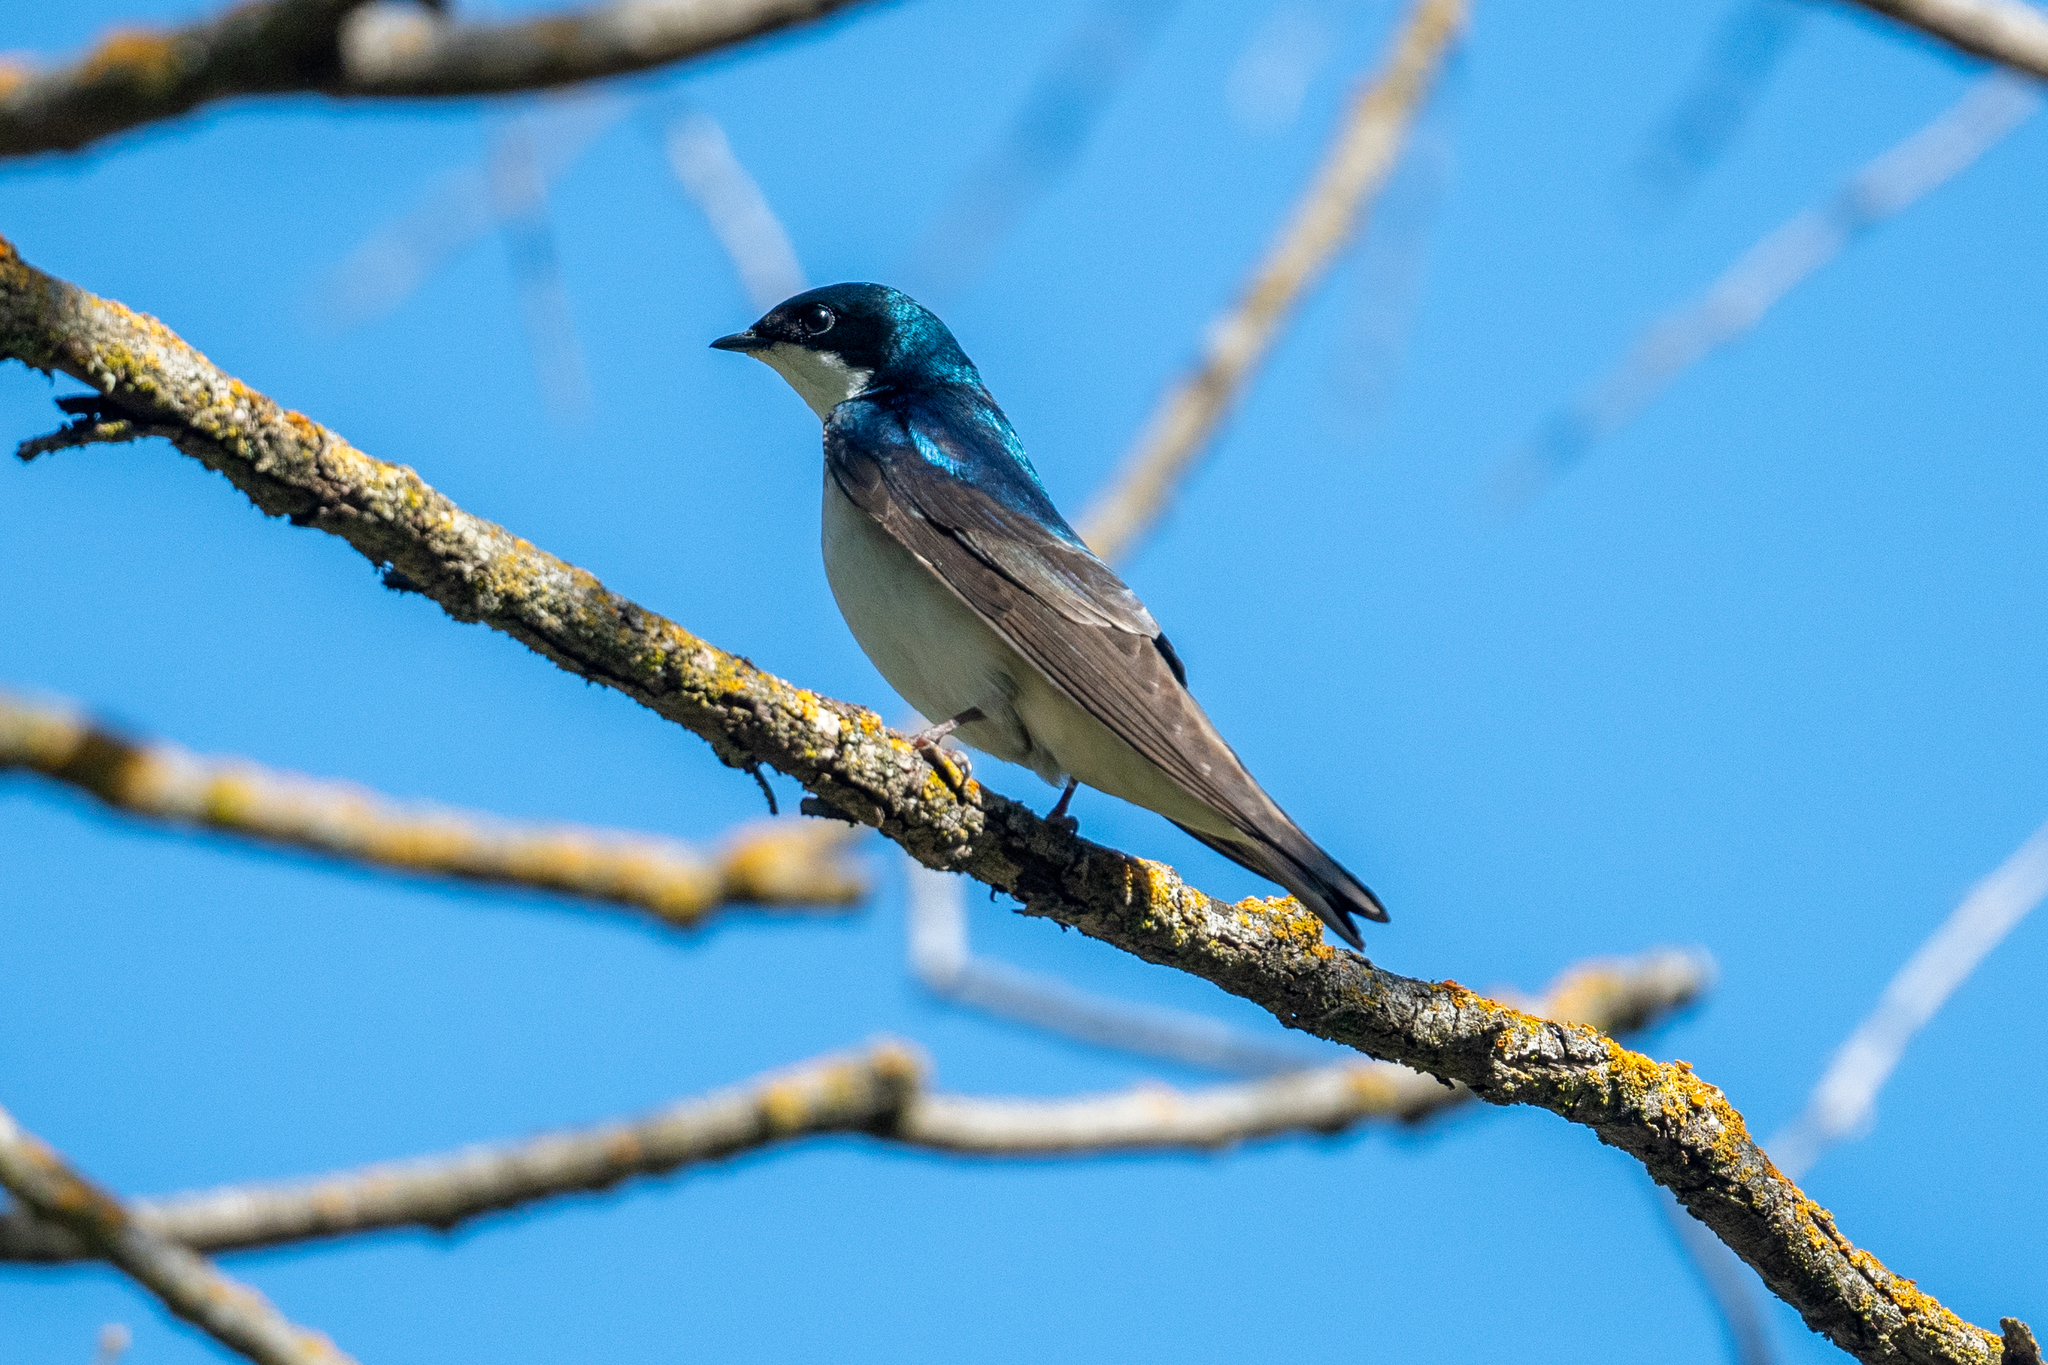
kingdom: Animalia
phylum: Chordata
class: Aves
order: Passeriformes
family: Hirundinidae
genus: Tachycineta
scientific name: Tachycineta bicolor
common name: Tree swallow
